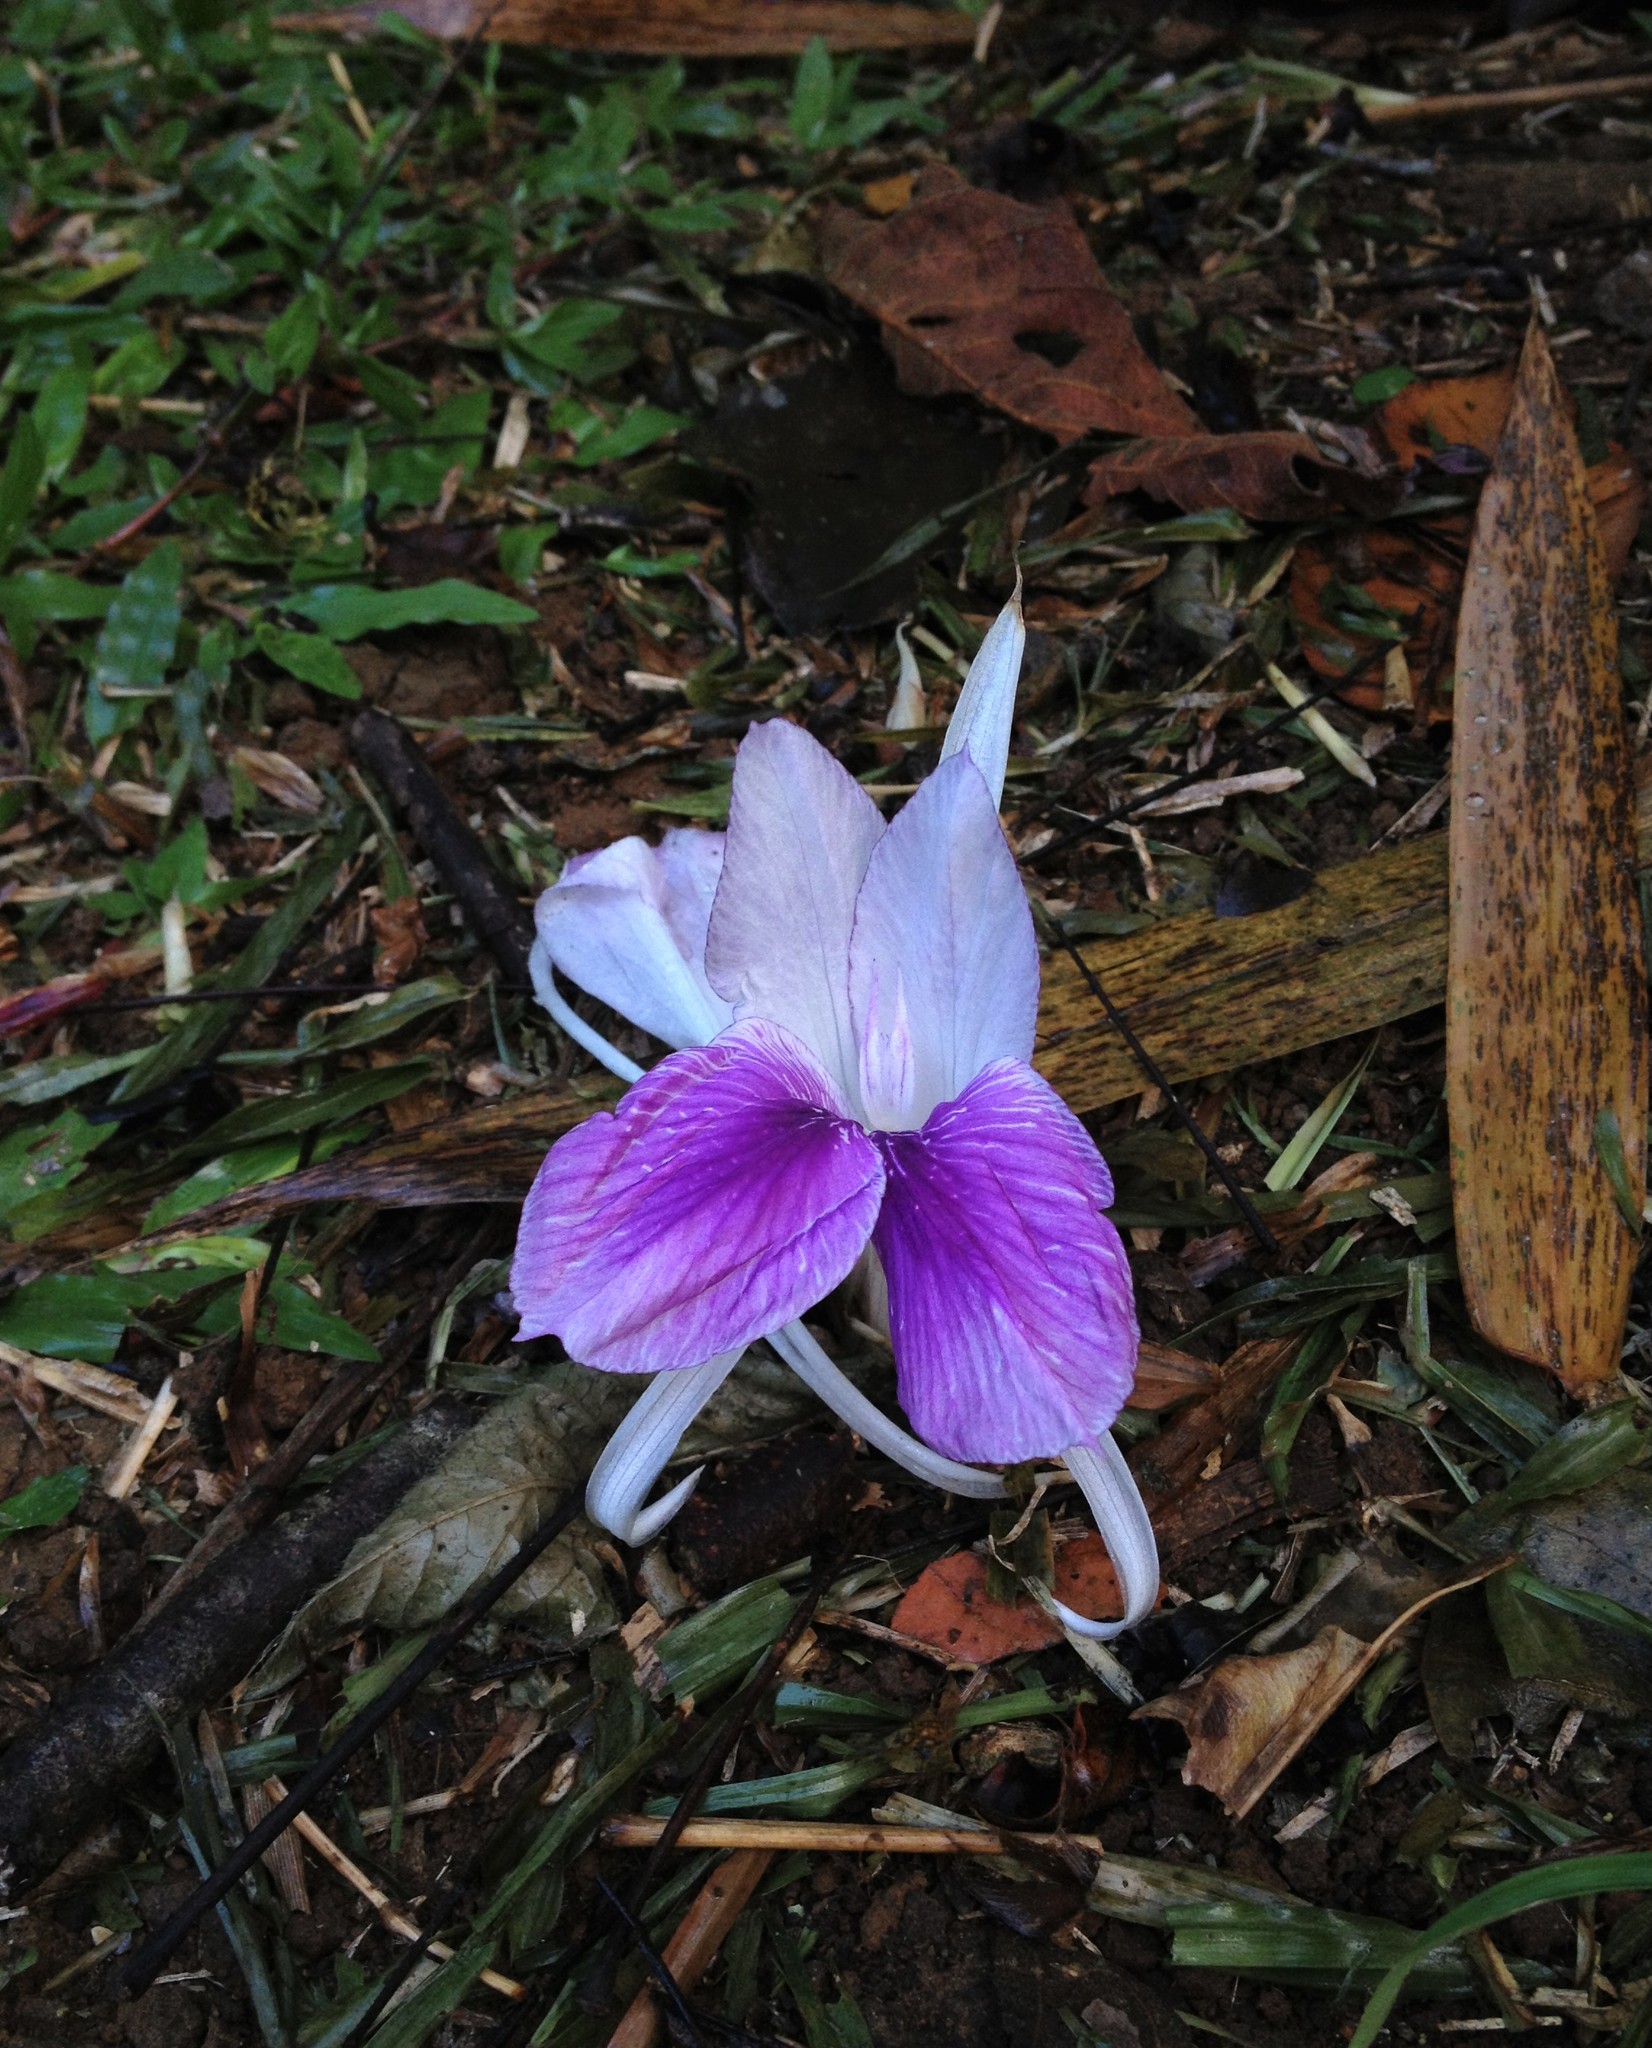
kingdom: Plantae
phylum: Tracheophyta
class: Liliopsida
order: Zingiberales
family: Zingiberaceae
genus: Kaempferia
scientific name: Kaempferia rotunda
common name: Tropical-crocus
